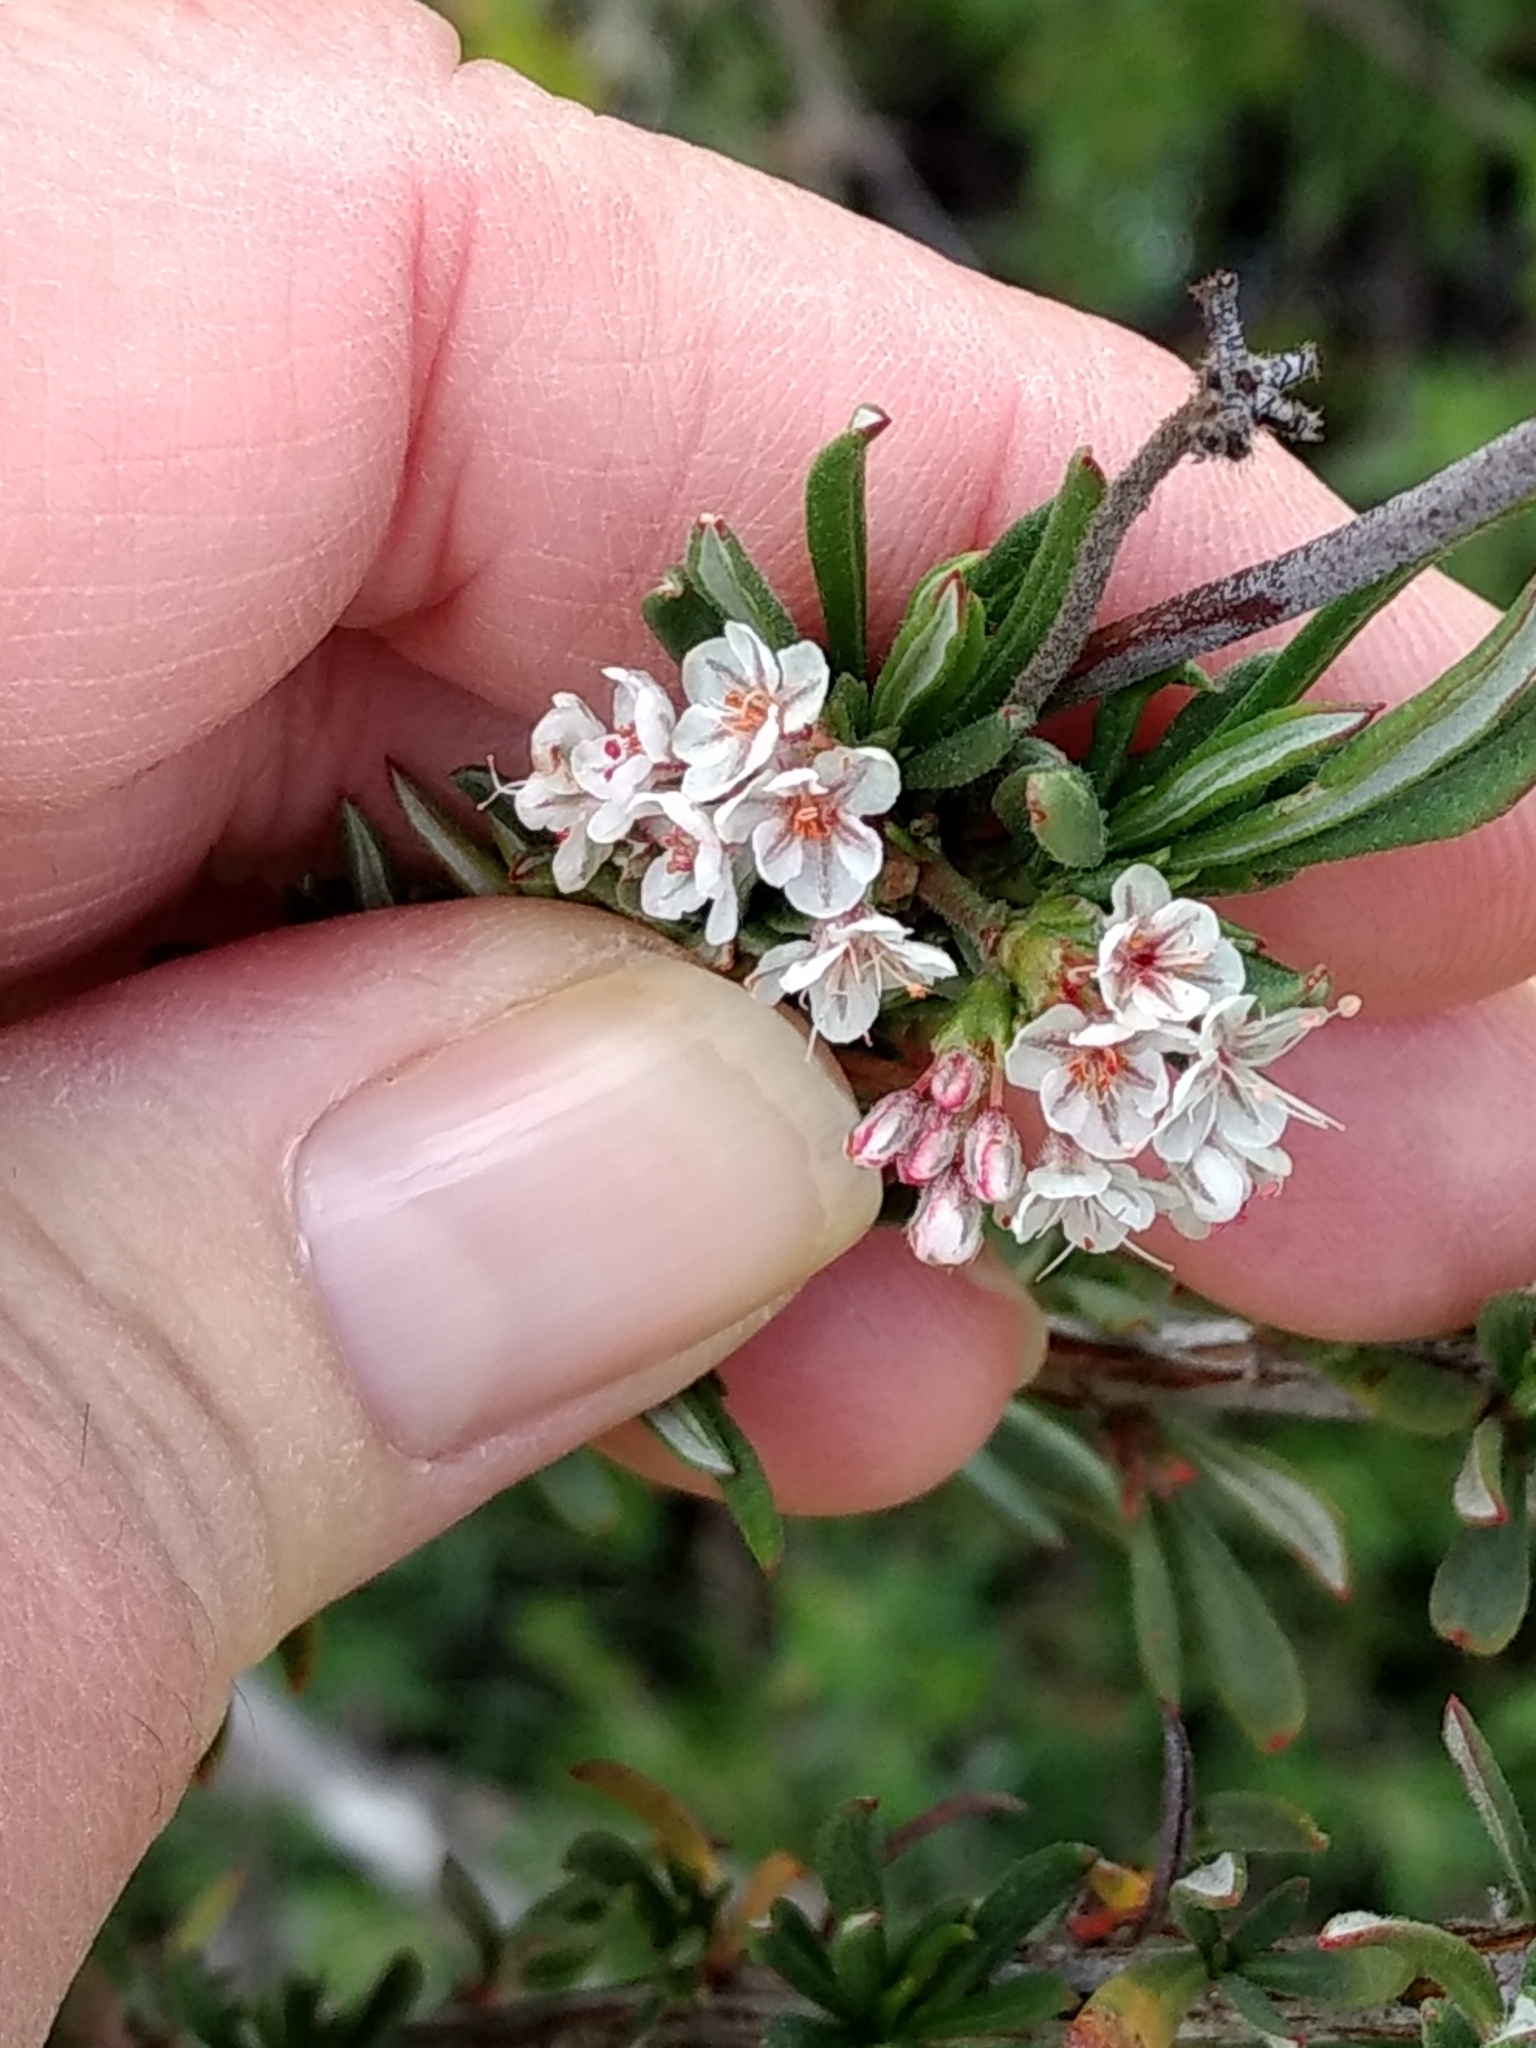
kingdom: Plantae
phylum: Tracheophyta
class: Magnoliopsida
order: Caryophyllales
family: Polygonaceae
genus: Eriogonum
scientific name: Eriogonum fasciculatum
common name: California wild buckwheat
